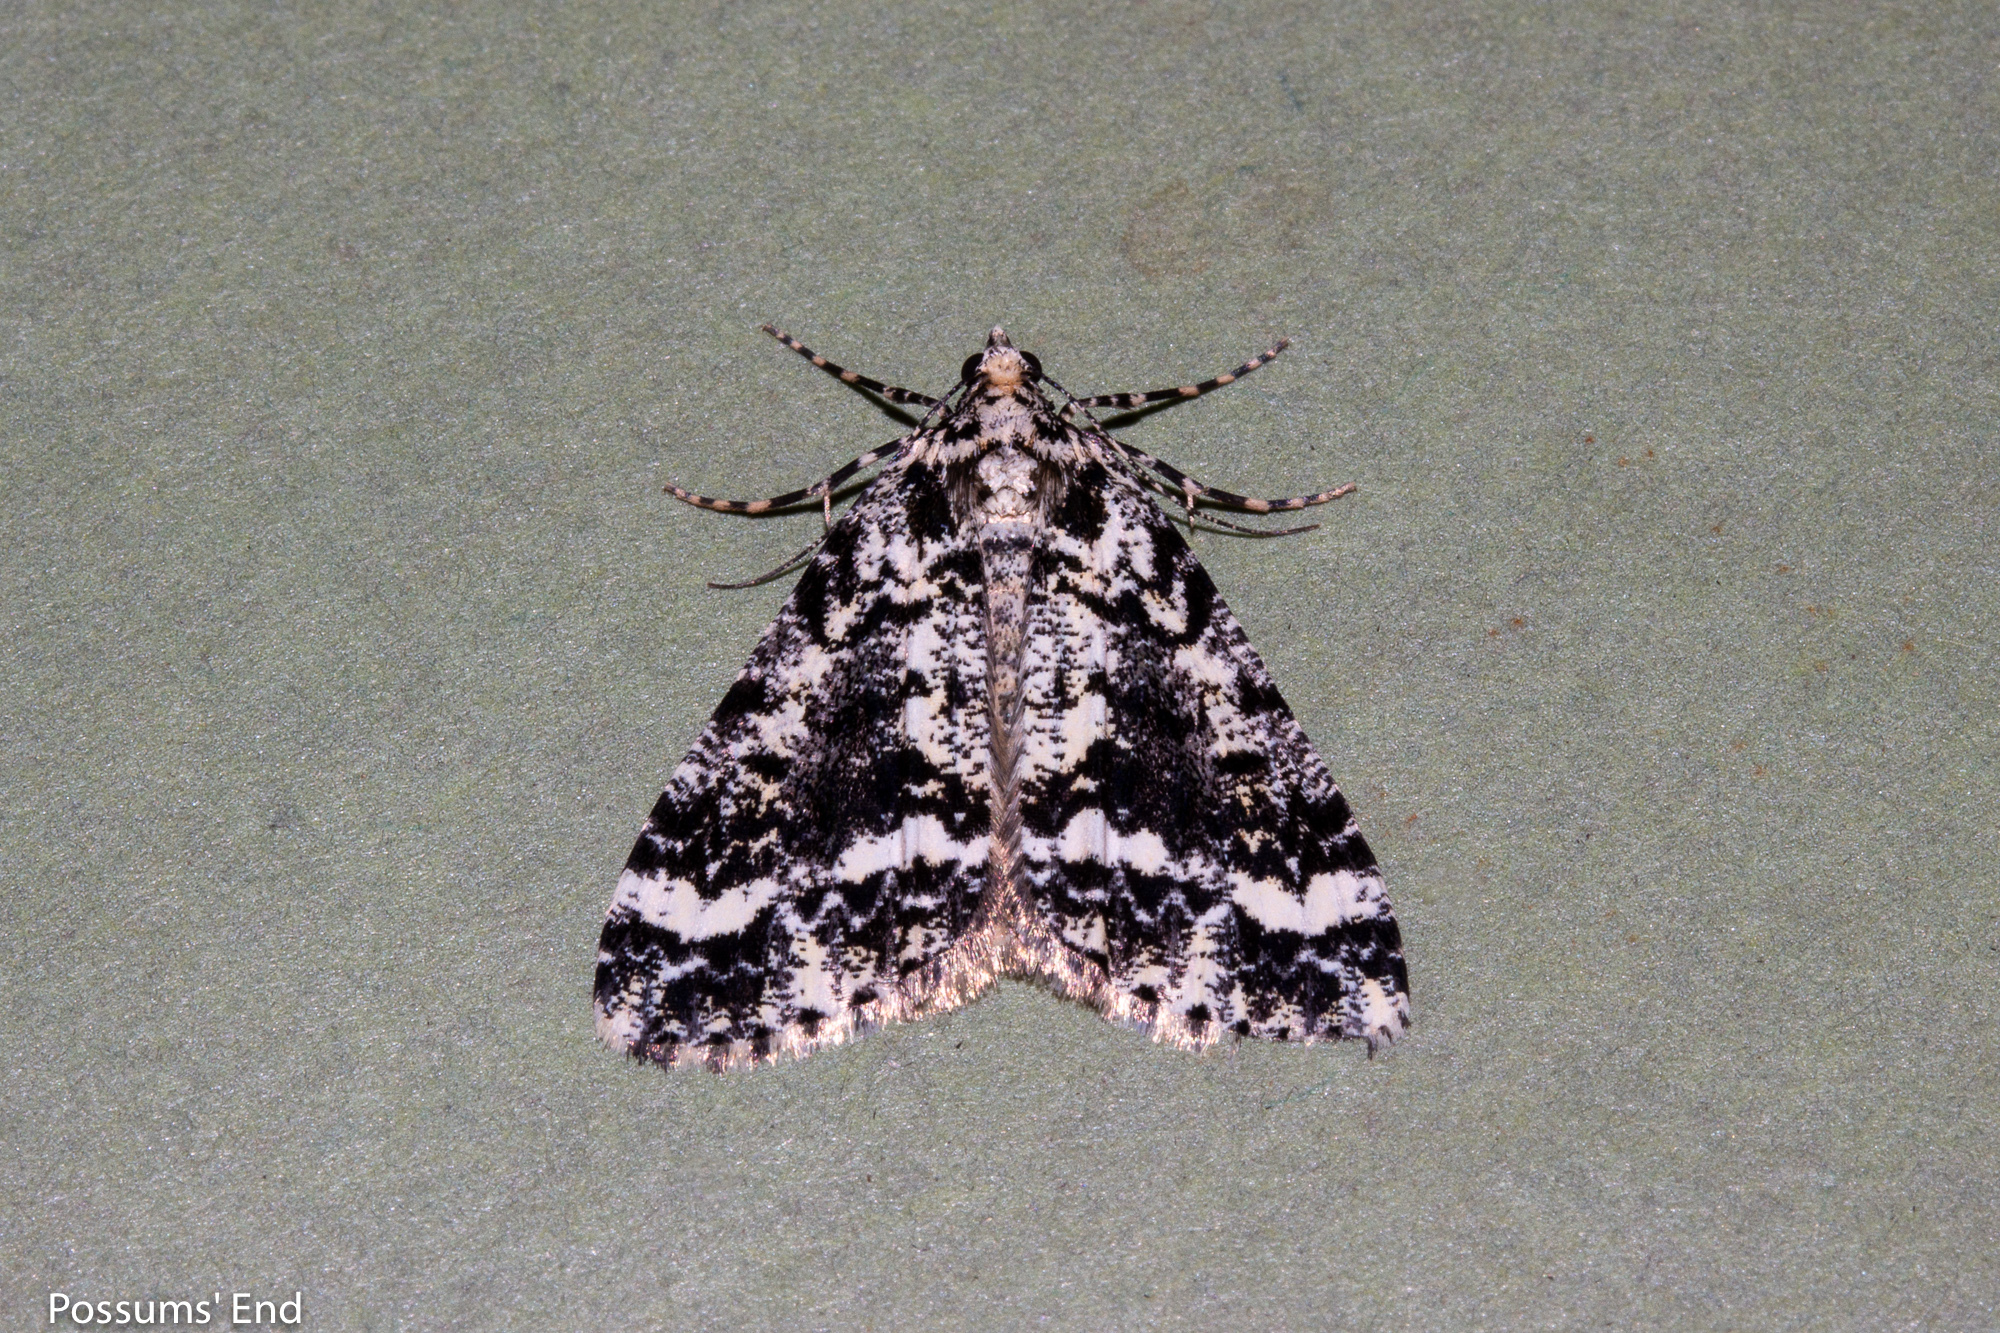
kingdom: Animalia
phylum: Arthropoda
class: Insecta
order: Lepidoptera
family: Geometridae
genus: Pseudocoremia
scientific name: Pseudocoremia leucelaea
